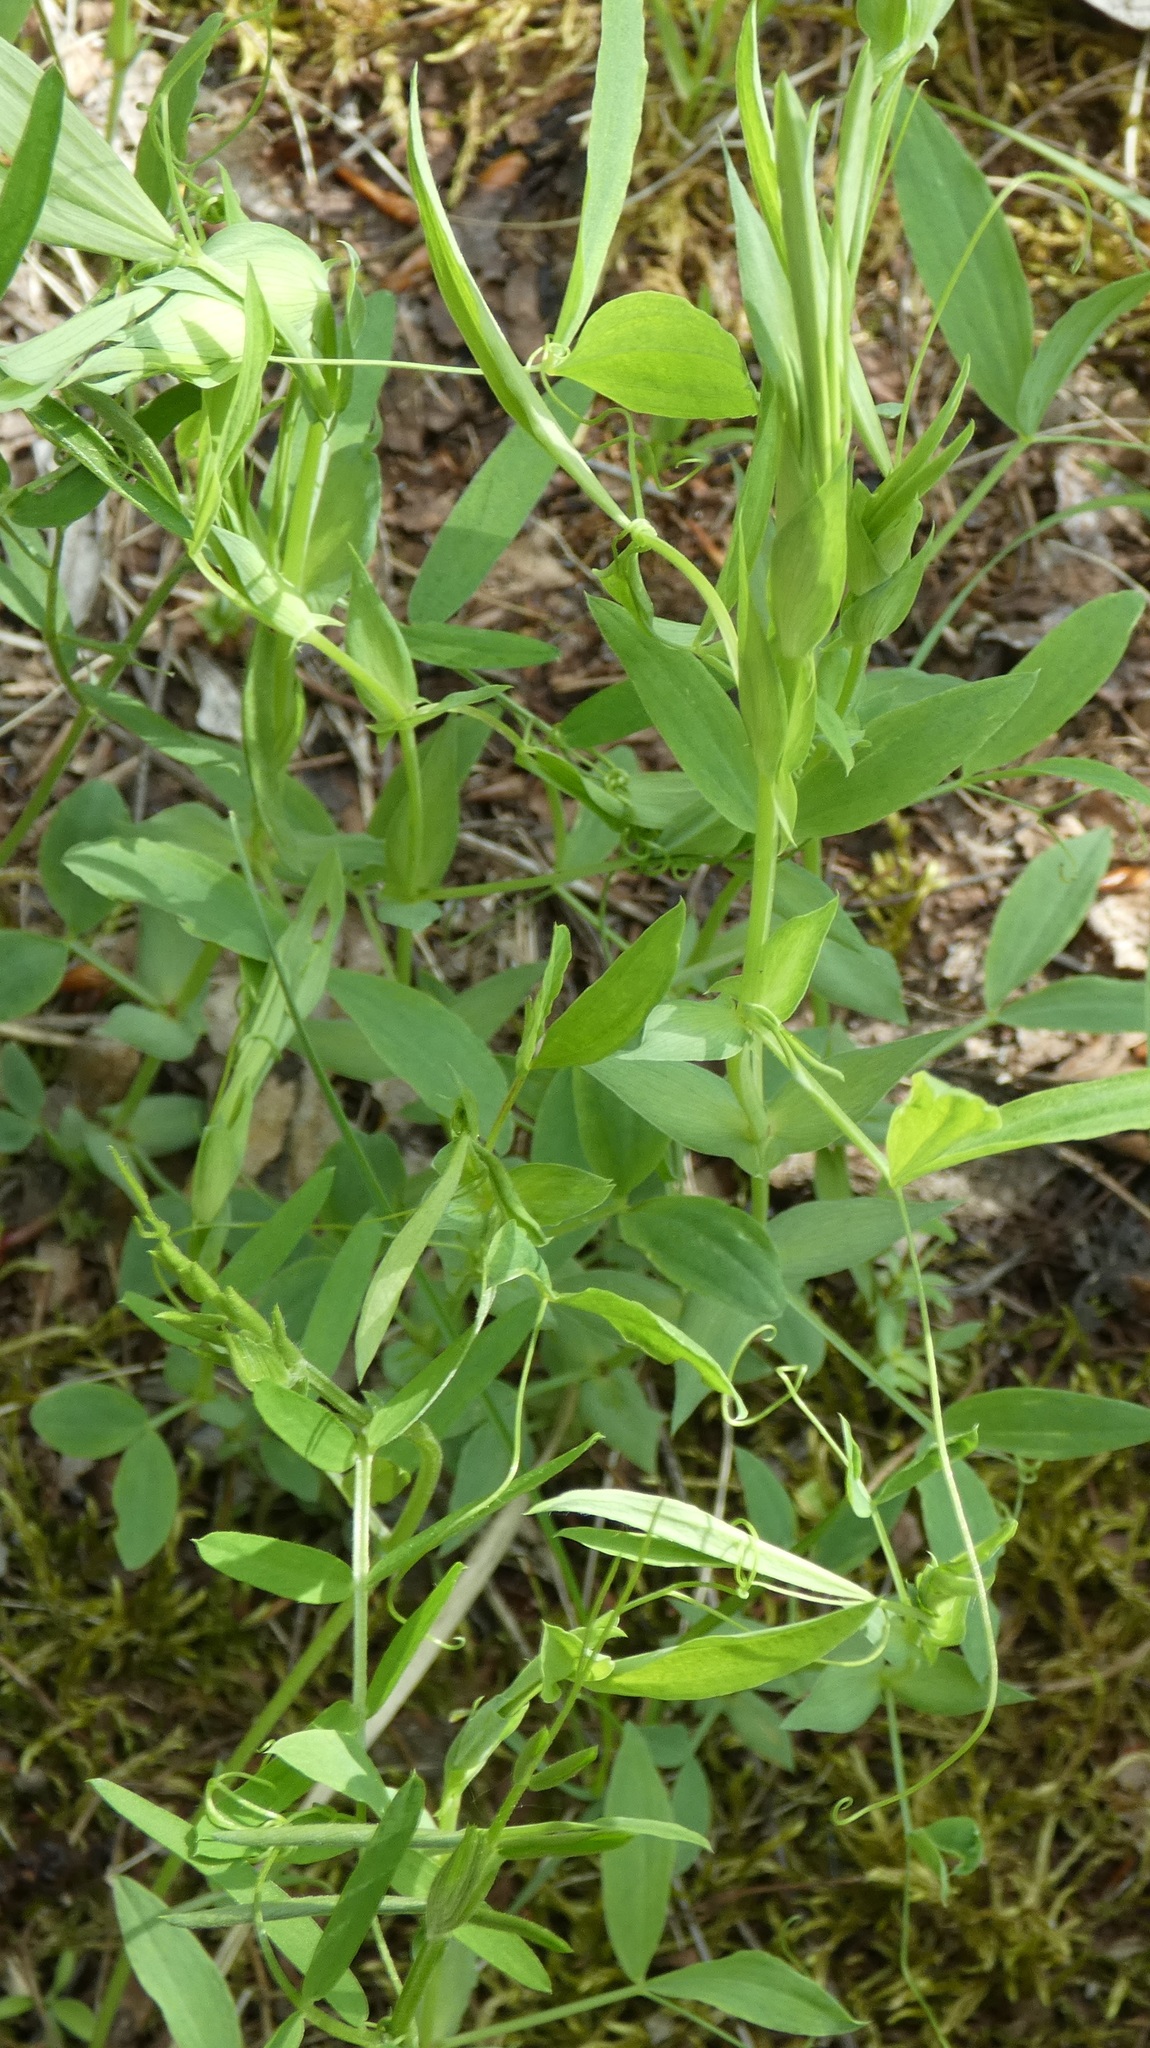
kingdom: Plantae
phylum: Tracheophyta
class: Magnoliopsida
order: Fabales
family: Fabaceae
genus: Lathyrus
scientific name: Lathyrus pratensis
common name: Meadow vetchling
